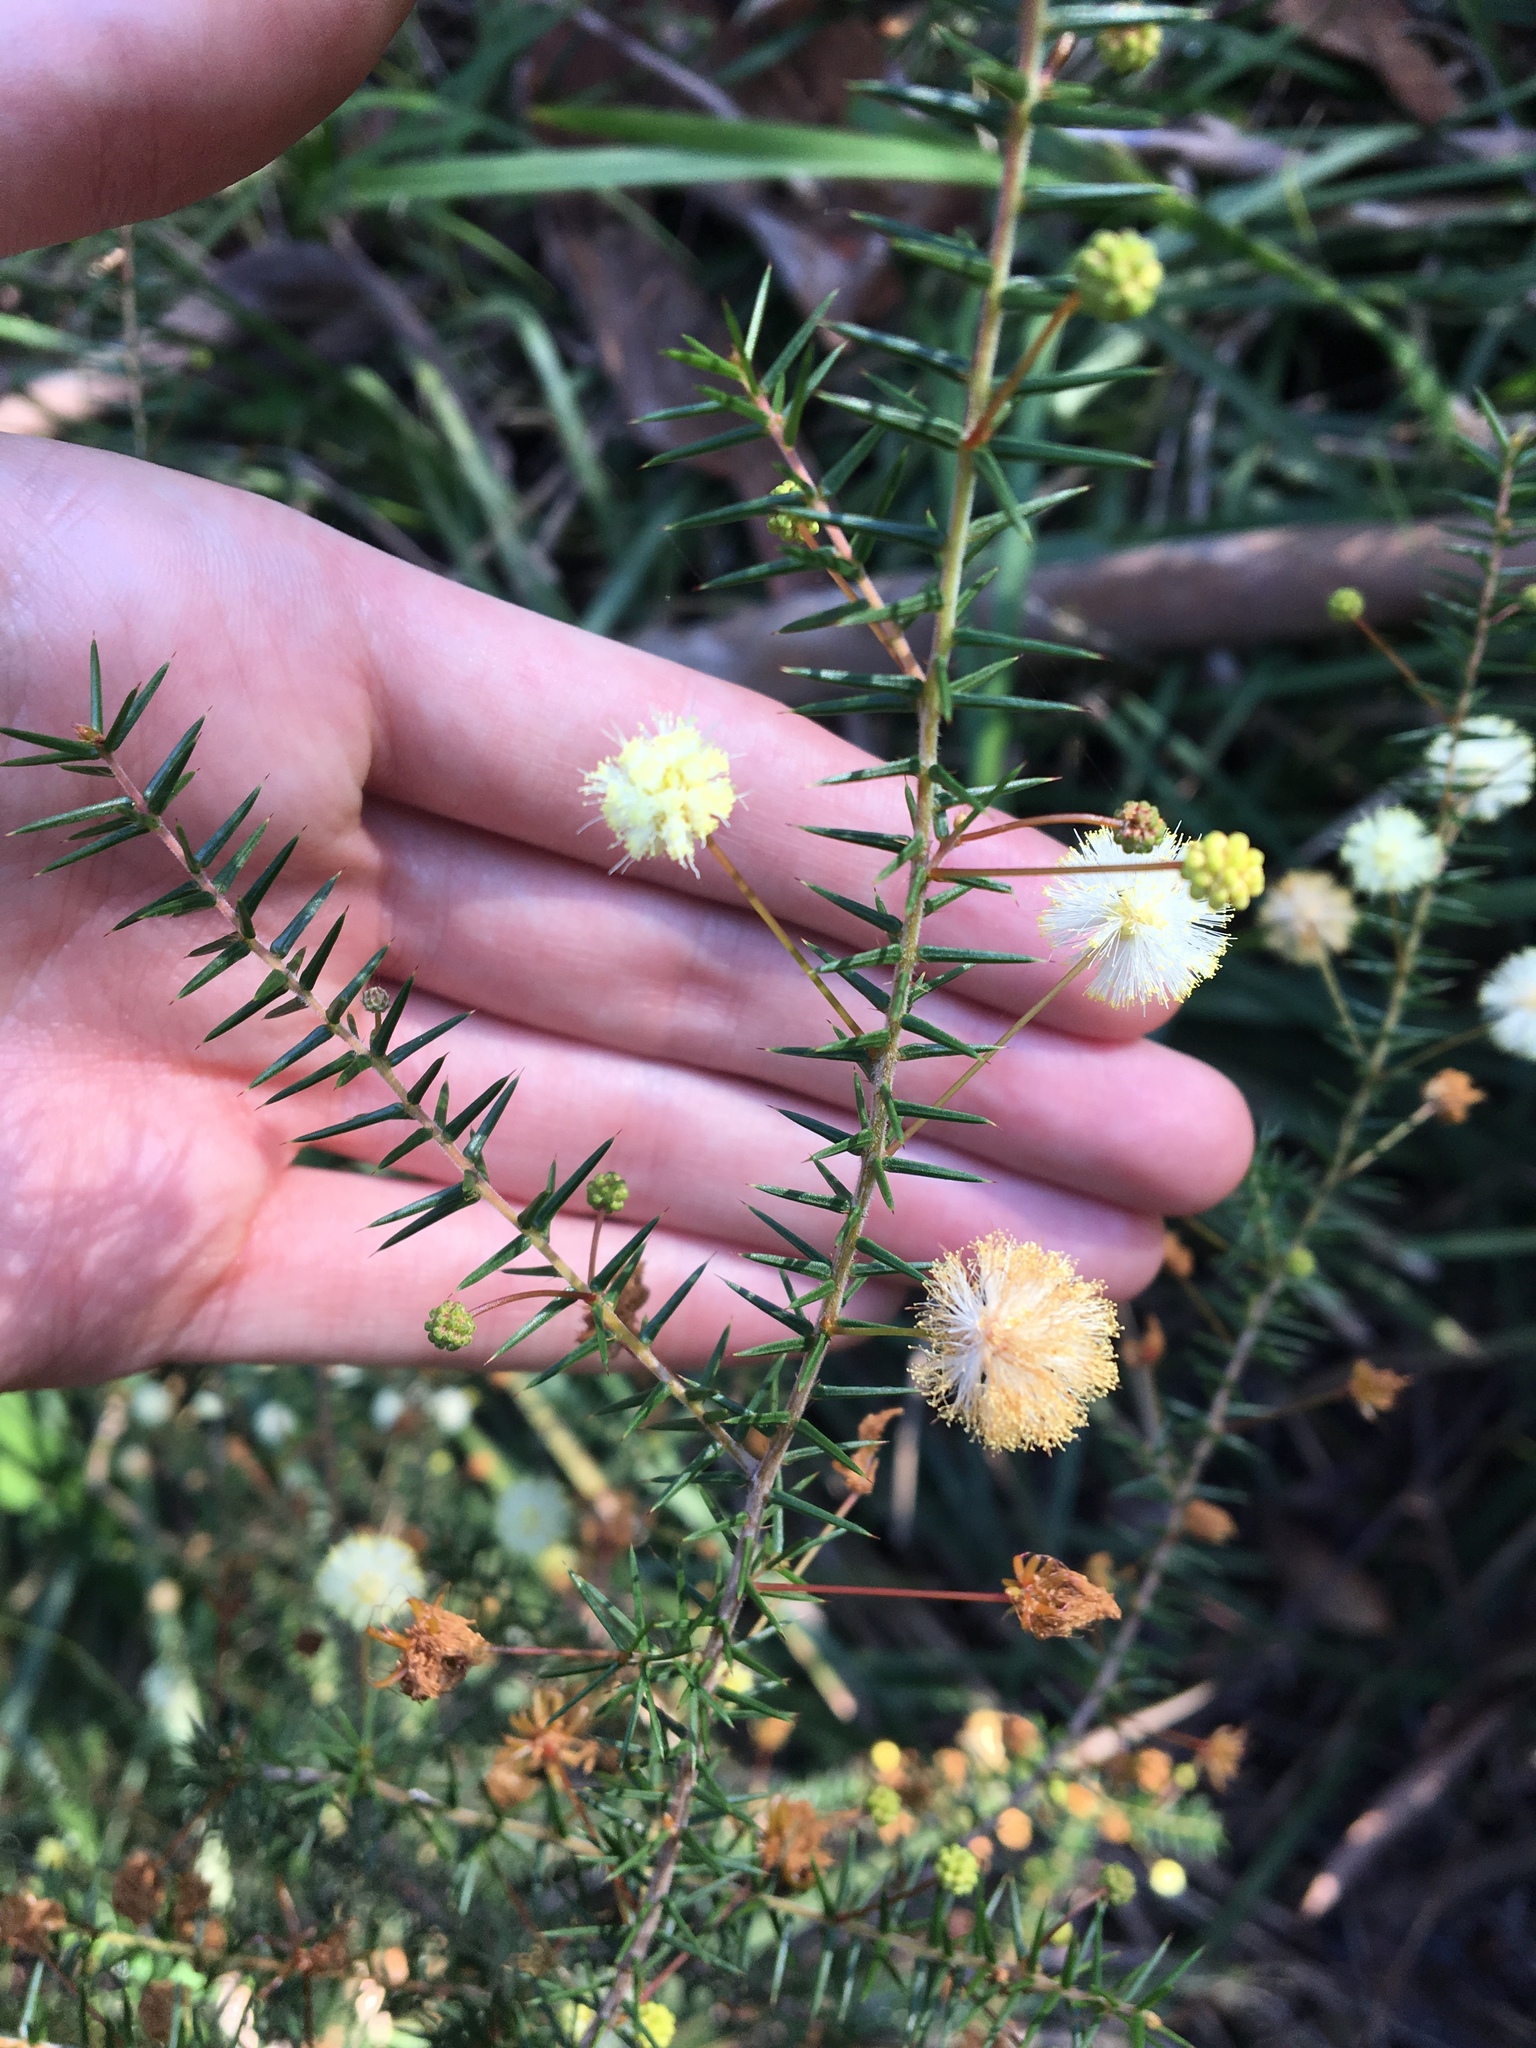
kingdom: Plantae
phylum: Tracheophyta
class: Magnoliopsida
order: Fabales
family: Fabaceae
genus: Acacia
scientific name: Acacia ulicifolia
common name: Juniper wattle
